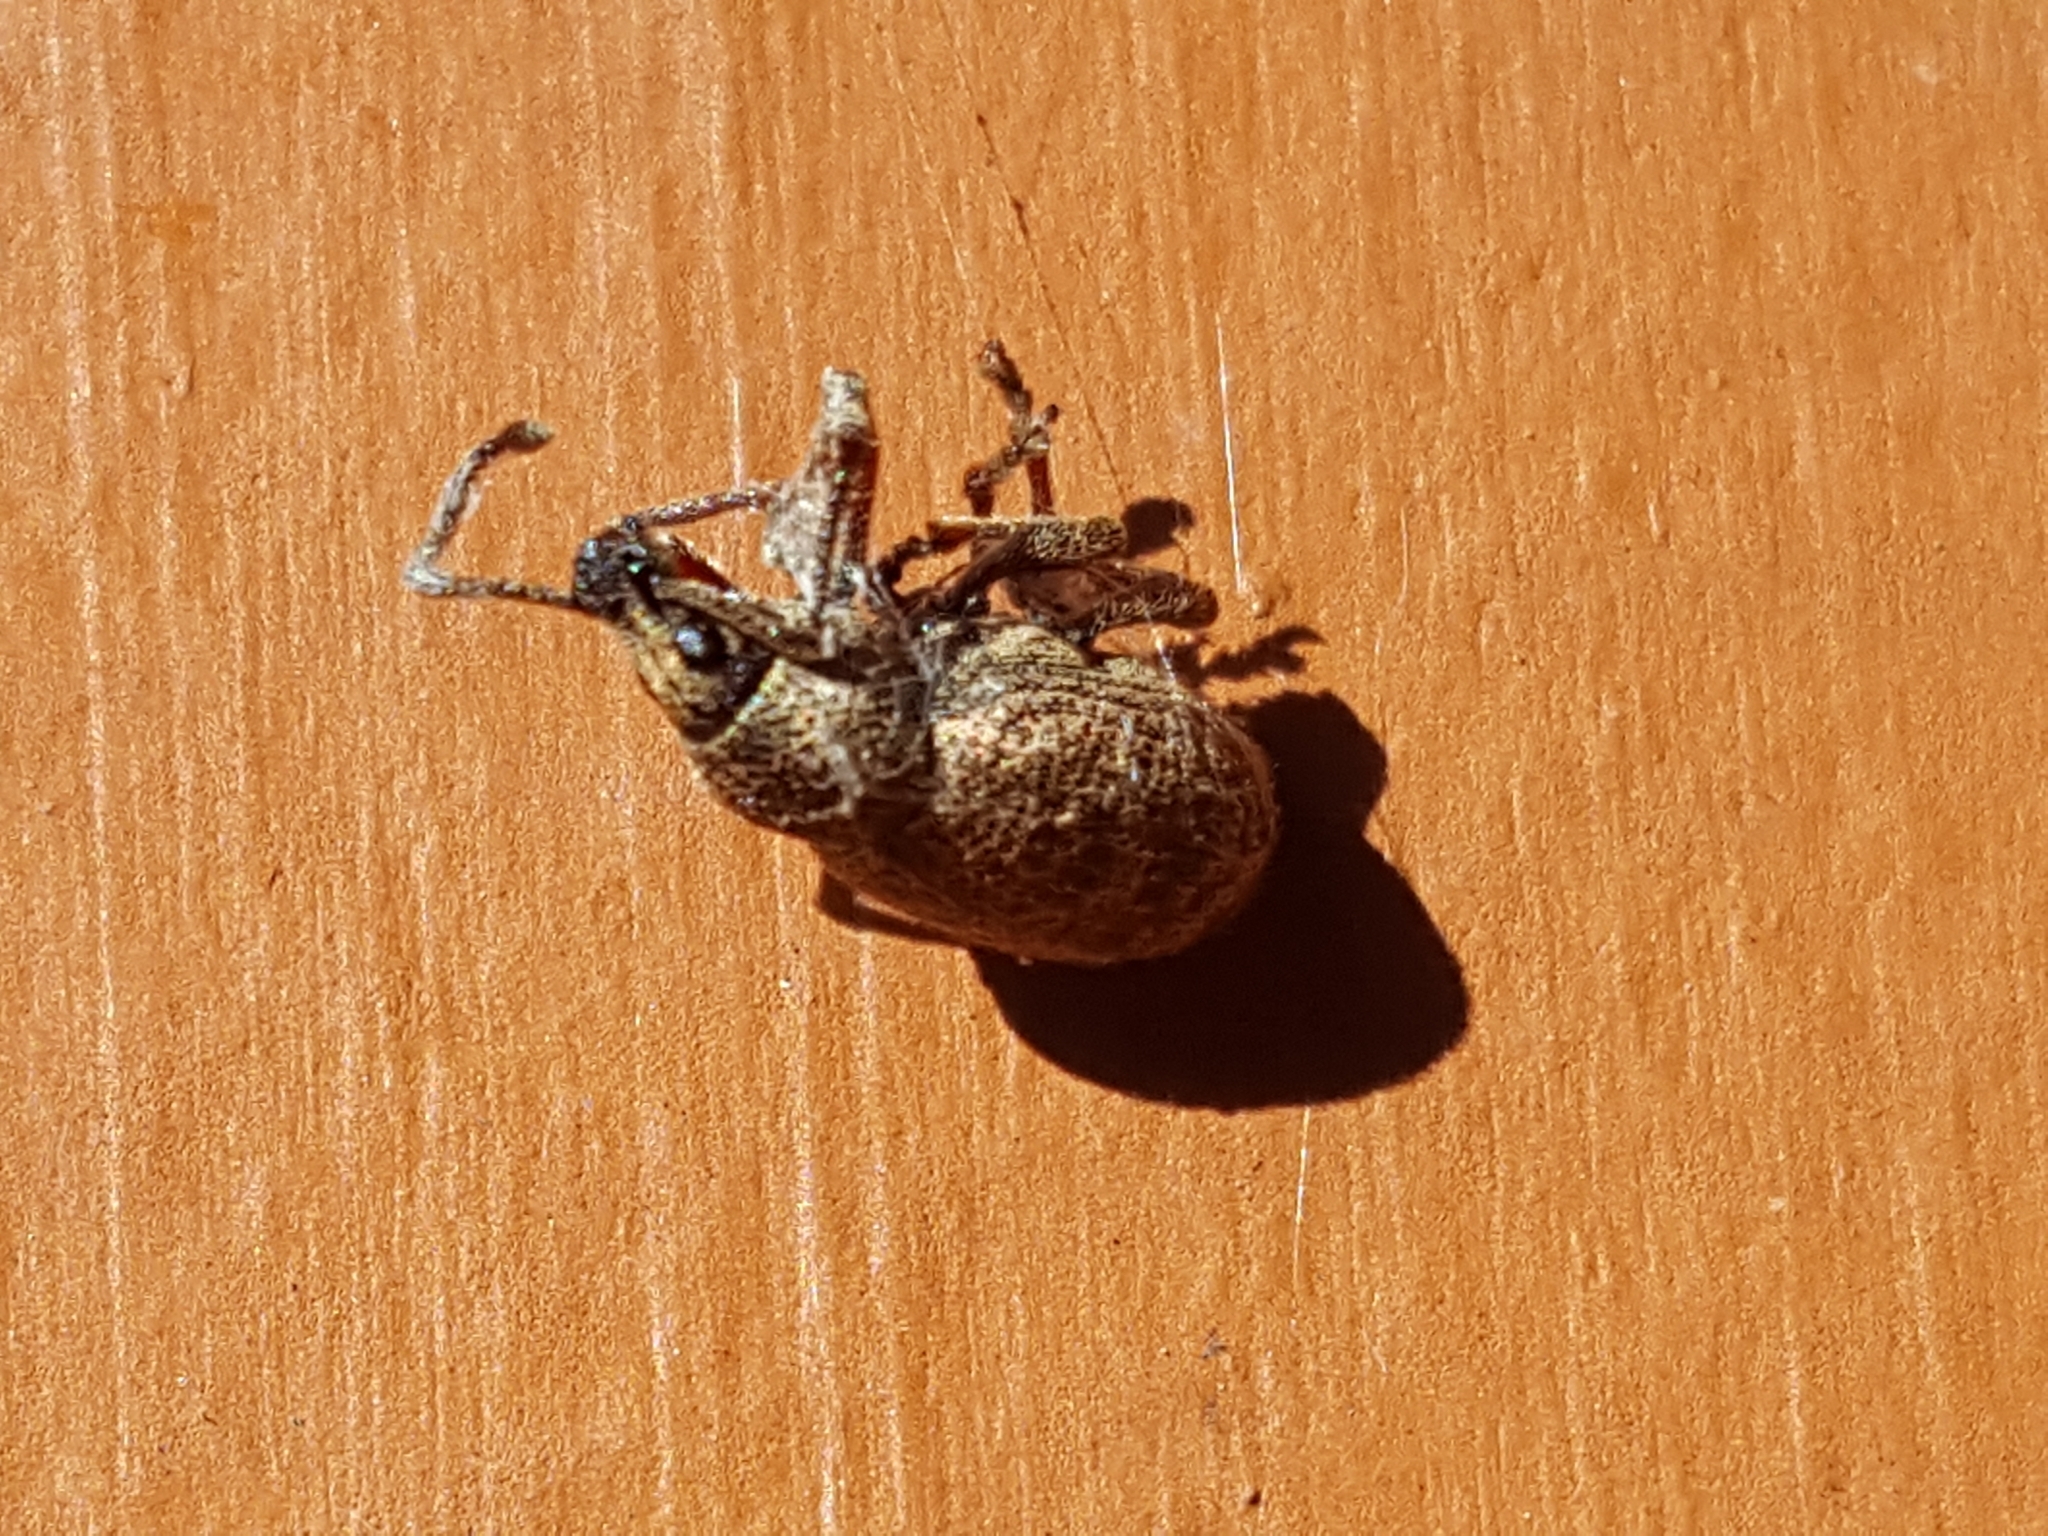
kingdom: Animalia
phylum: Arthropoda
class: Insecta
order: Coleoptera
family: Curculionidae
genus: Otiorhynchus
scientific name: Otiorhynchus singularis
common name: Clay-coloured weevil
